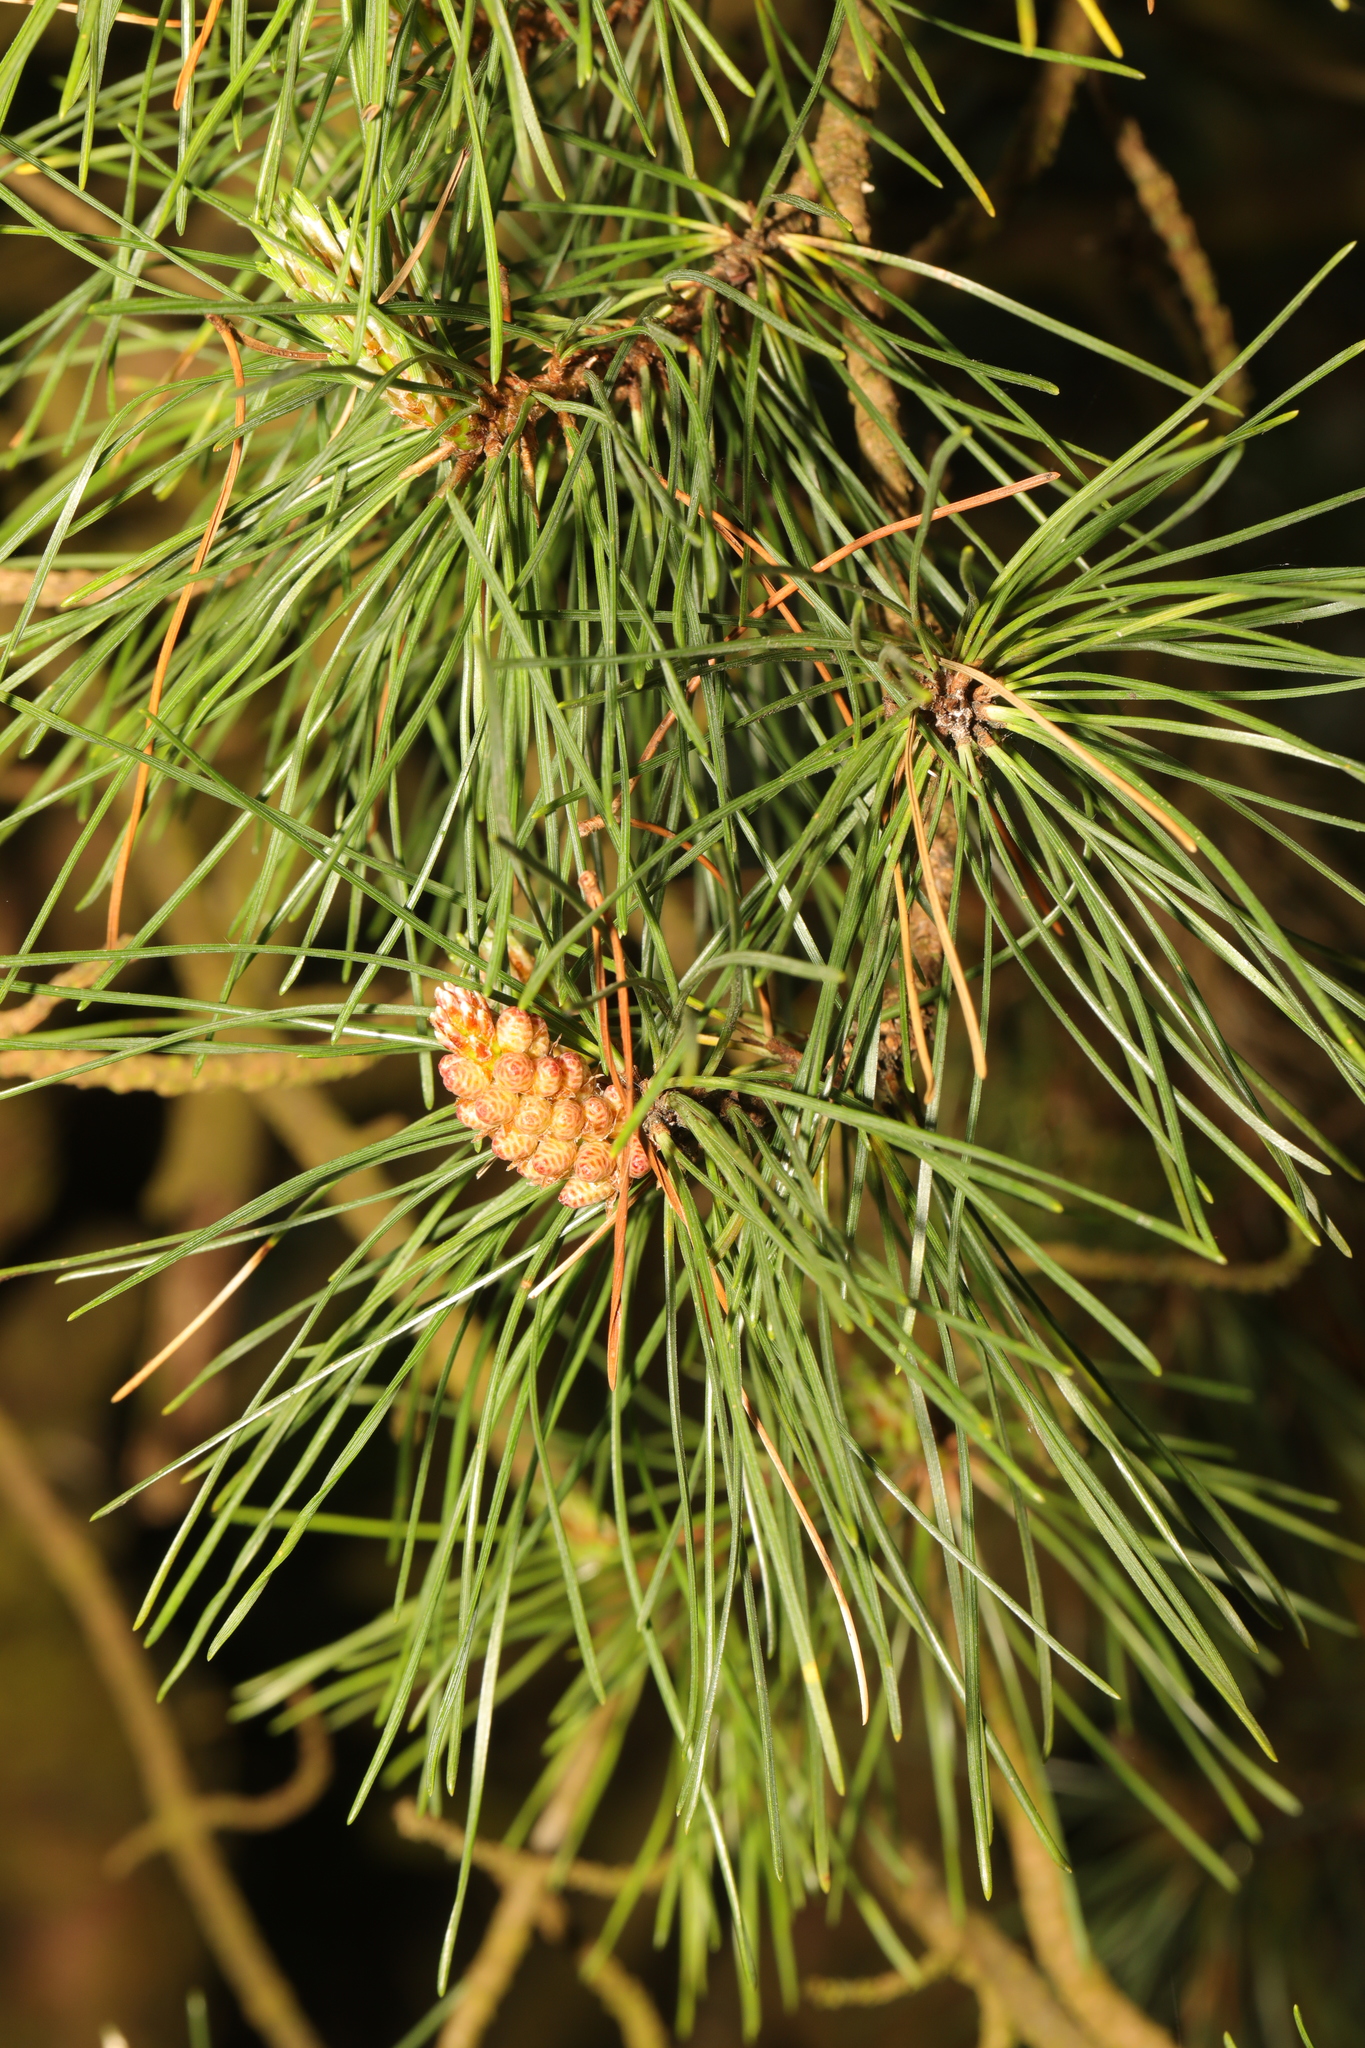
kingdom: Plantae
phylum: Tracheophyta
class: Pinopsida
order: Pinales
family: Pinaceae
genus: Pinus
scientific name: Pinus sylvestris
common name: Scots pine
